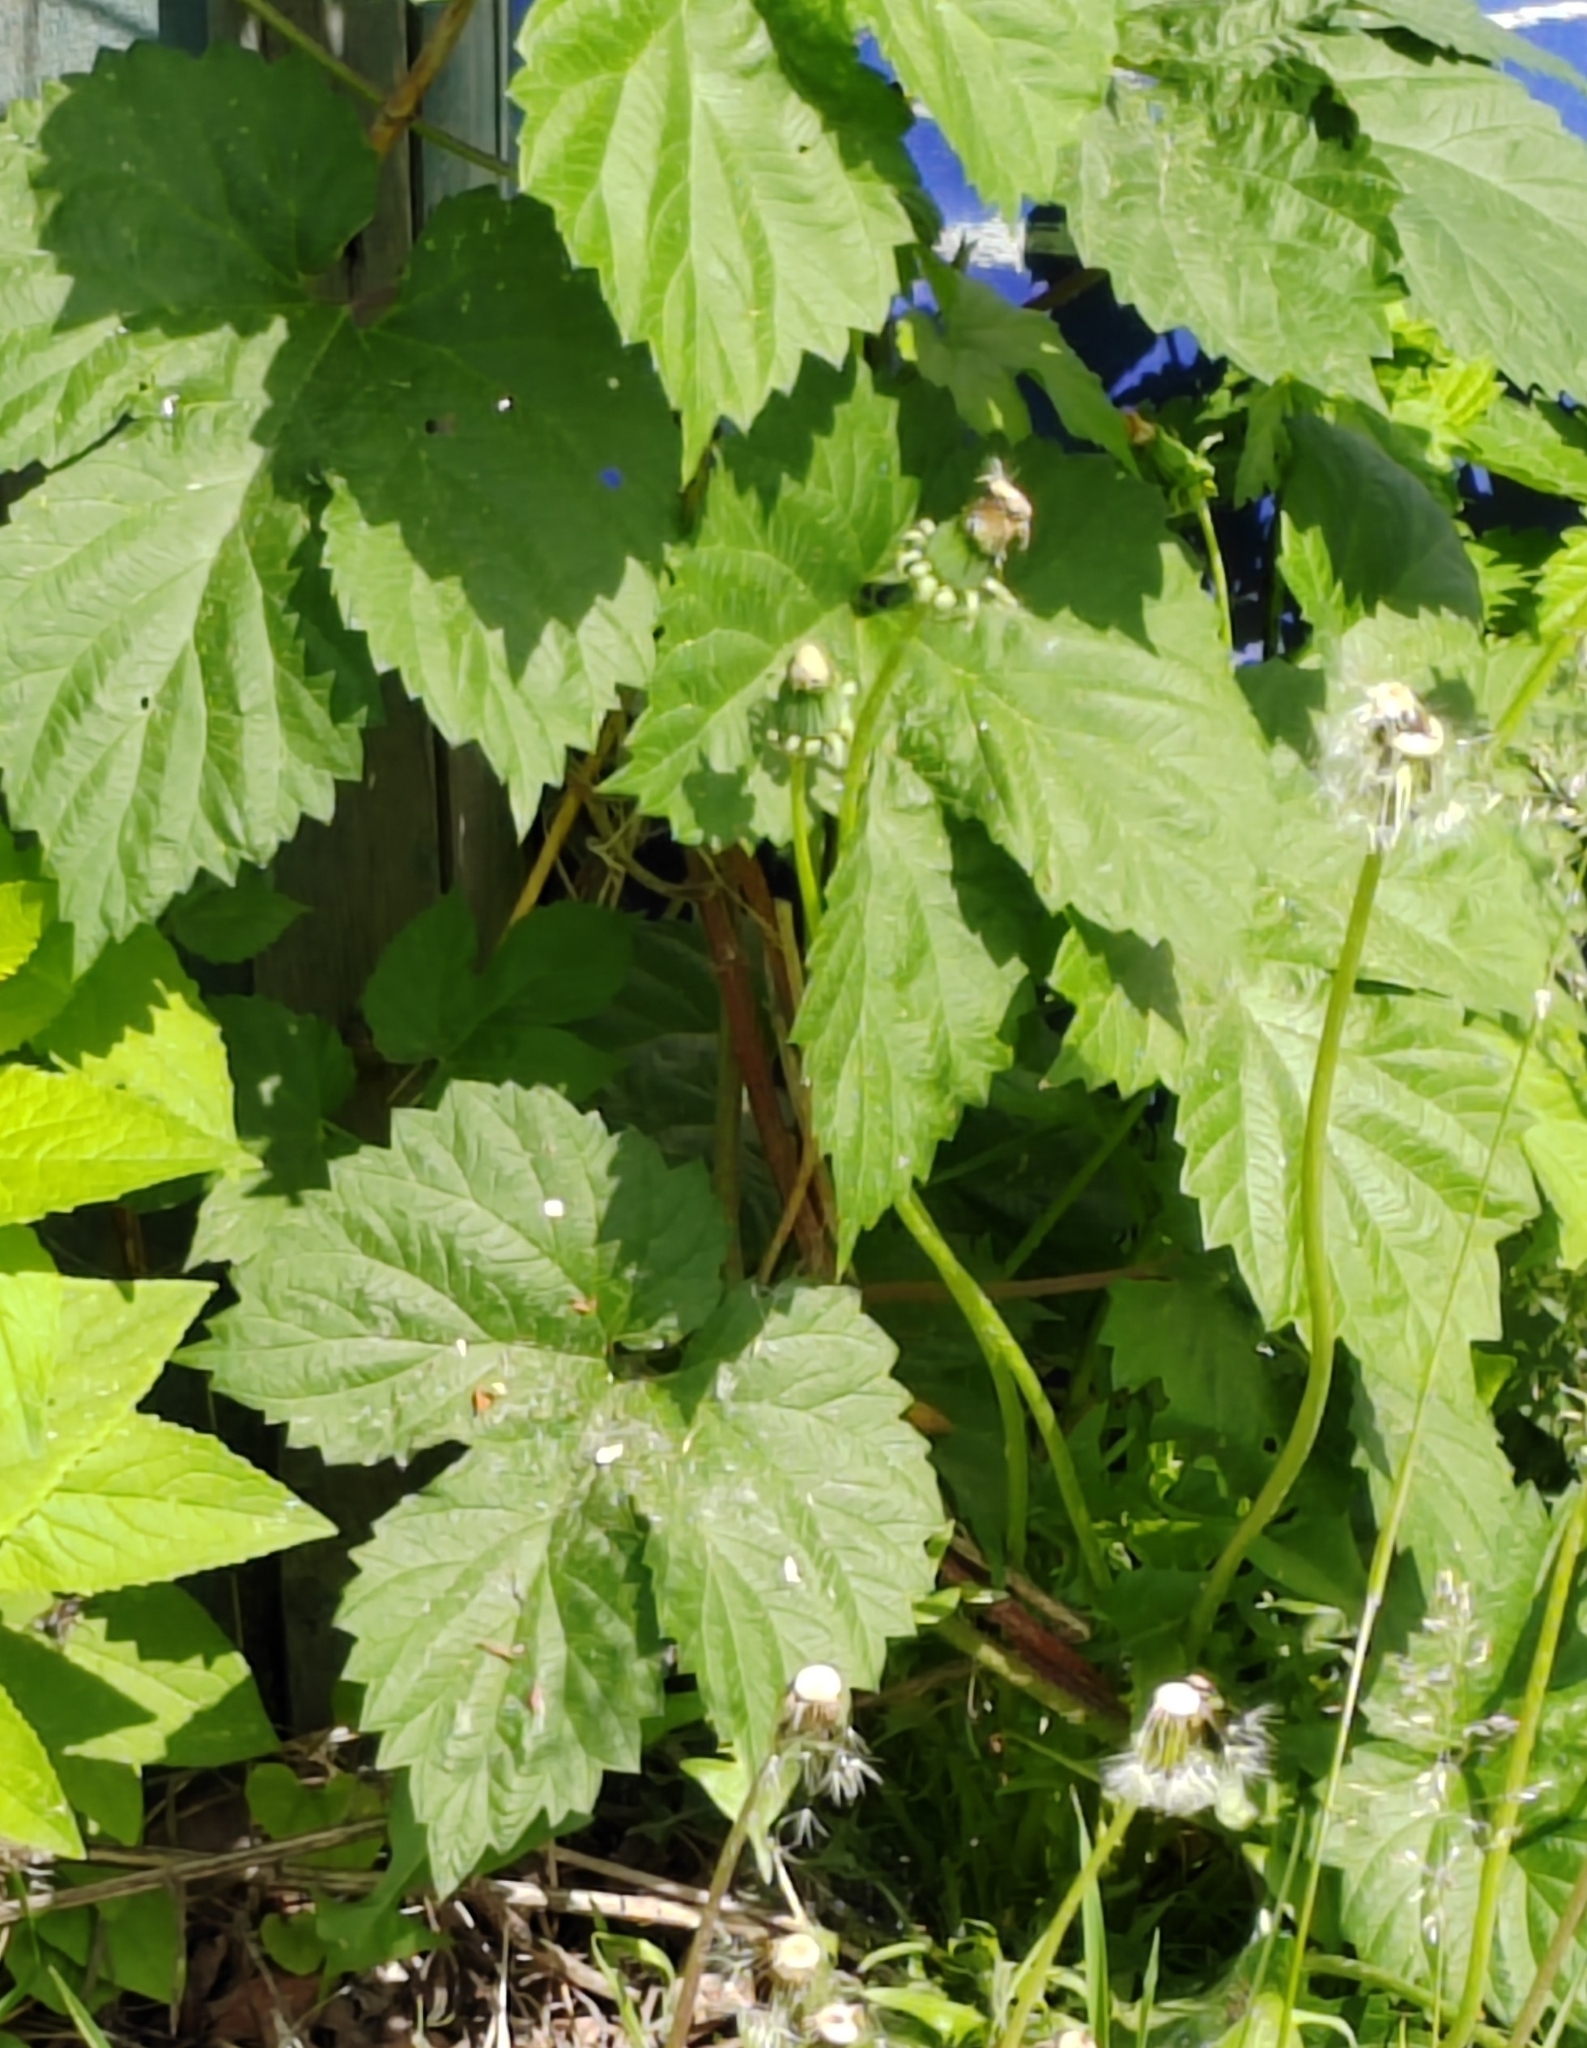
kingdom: Plantae
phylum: Tracheophyta
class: Magnoliopsida
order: Rosales
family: Cannabaceae
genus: Humulus
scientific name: Humulus lupulus
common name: Hop
